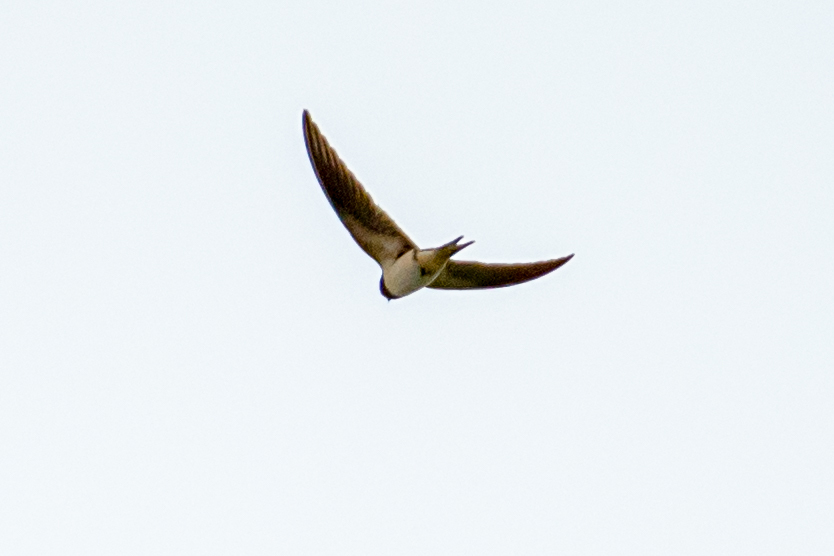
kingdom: Animalia
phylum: Chordata
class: Aves
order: Passeriformes
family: Hirundinidae
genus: Hirundo
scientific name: Hirundo rustica
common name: Barn swallow
